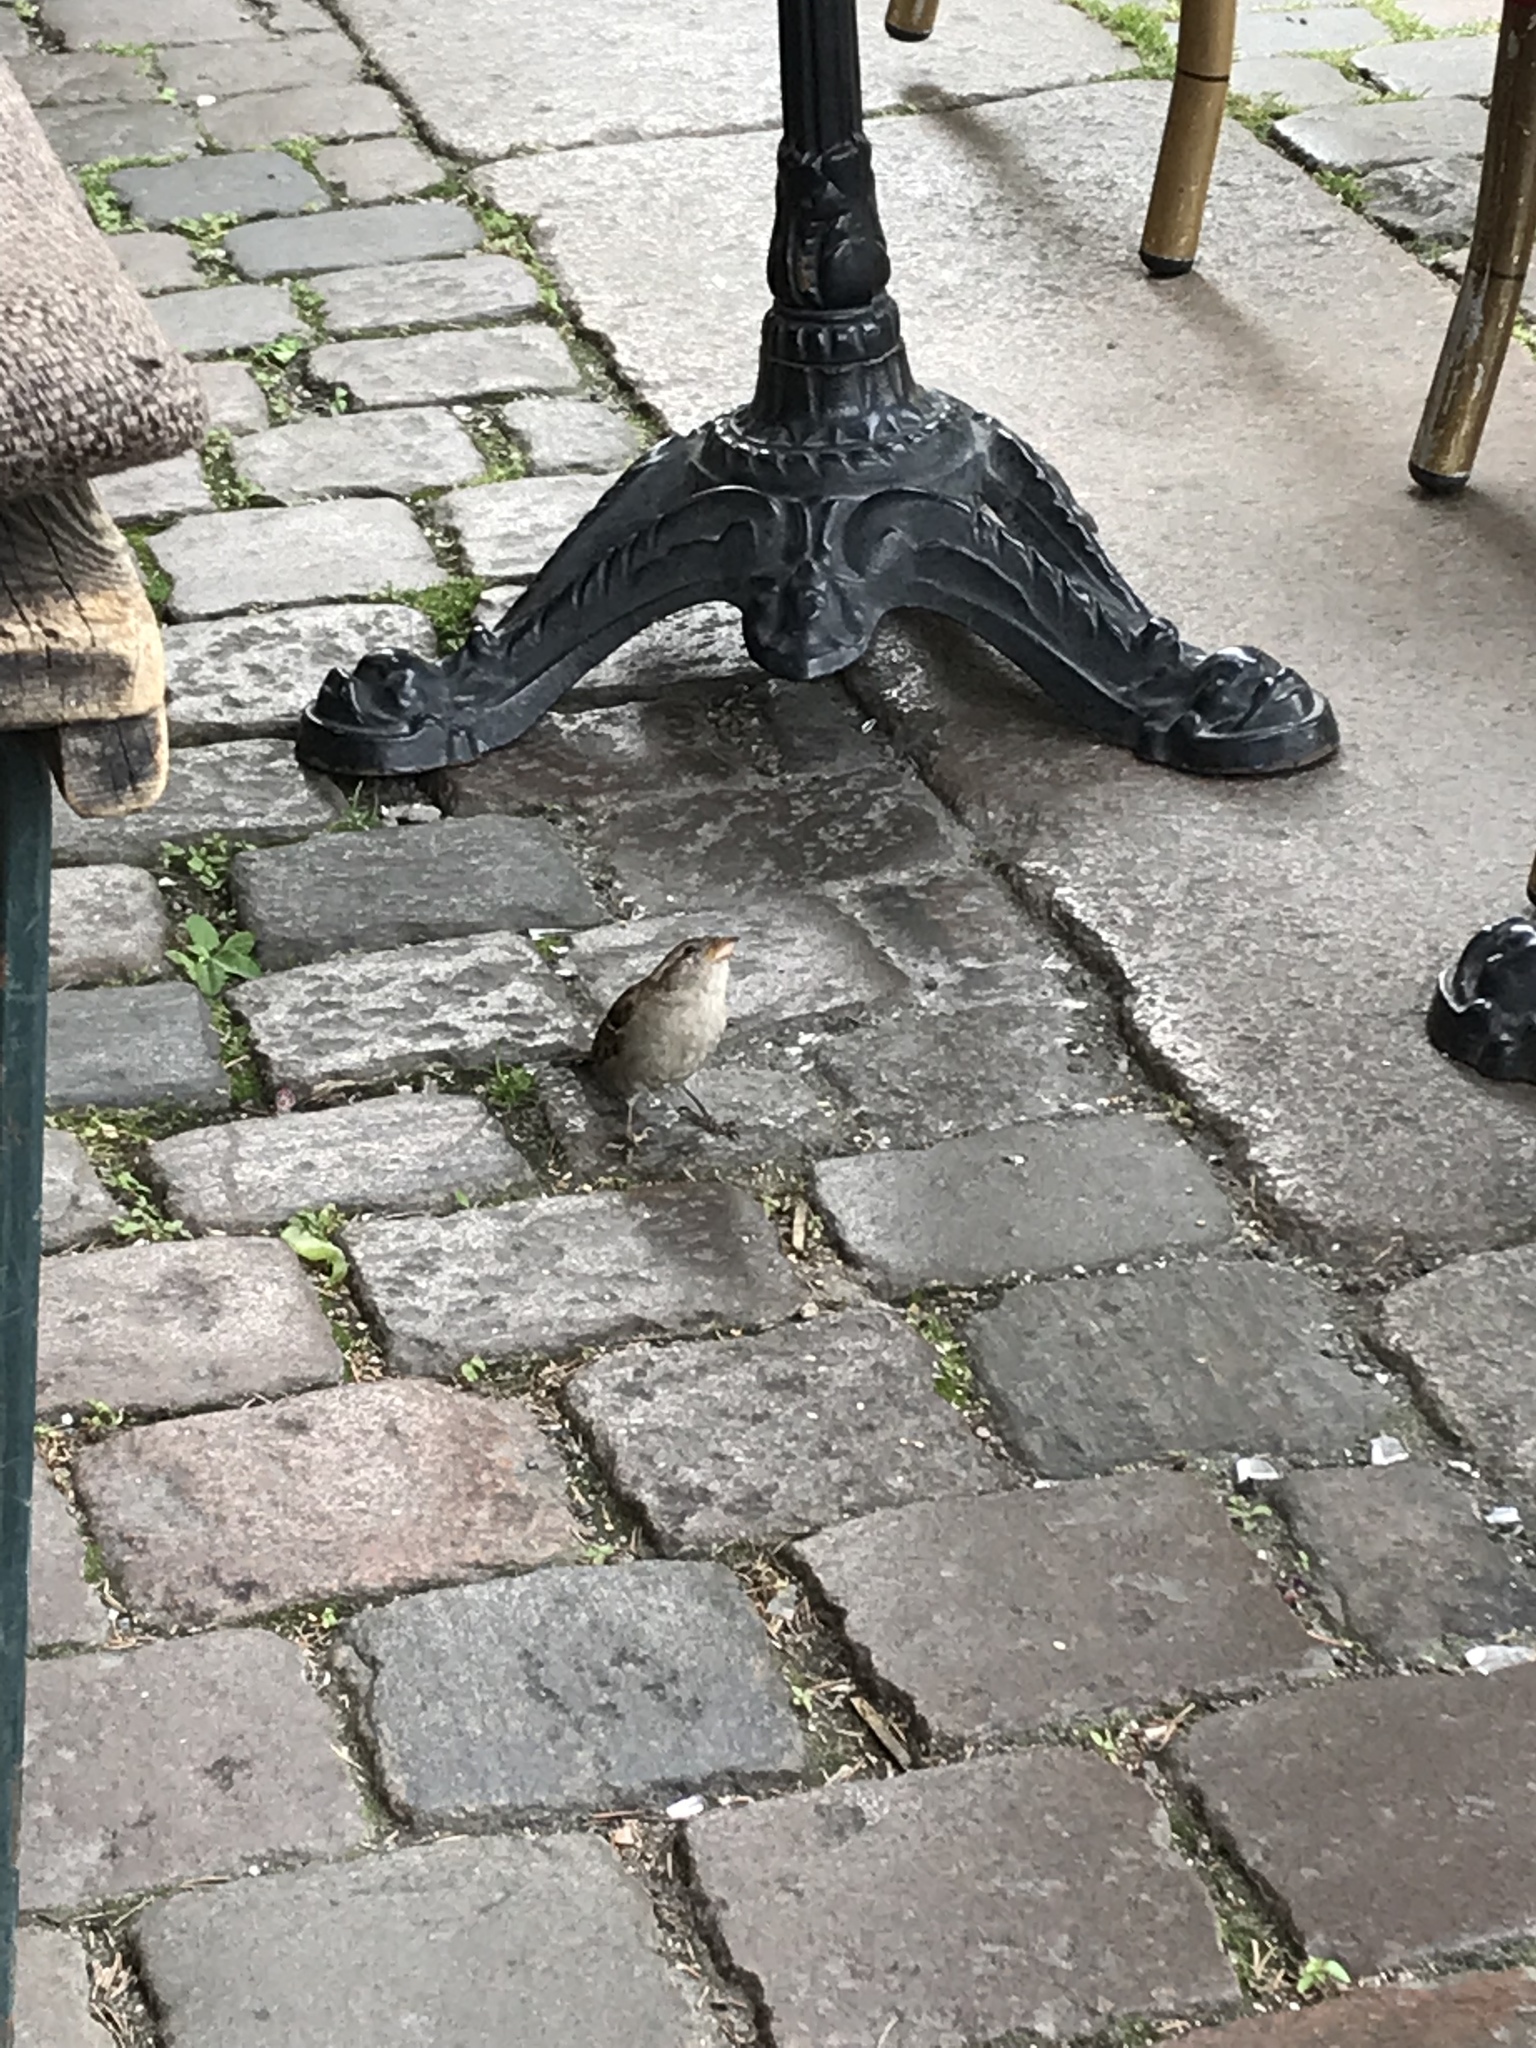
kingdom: Animalia
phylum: Chordata
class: Aves
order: Passeriformes
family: Passeridae
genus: Passer
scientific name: Passer domesticus
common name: House sparrow
